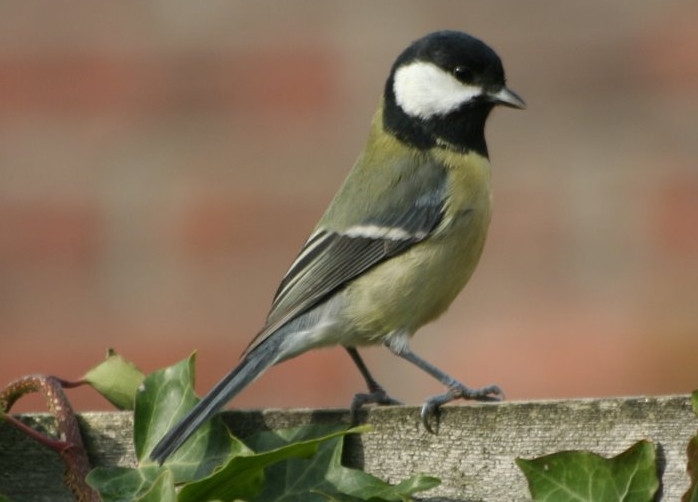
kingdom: Animalia
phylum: Chordata
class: Aves
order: Passeriformes
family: Paridae
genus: Parus
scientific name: Parus major
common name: Great tit
